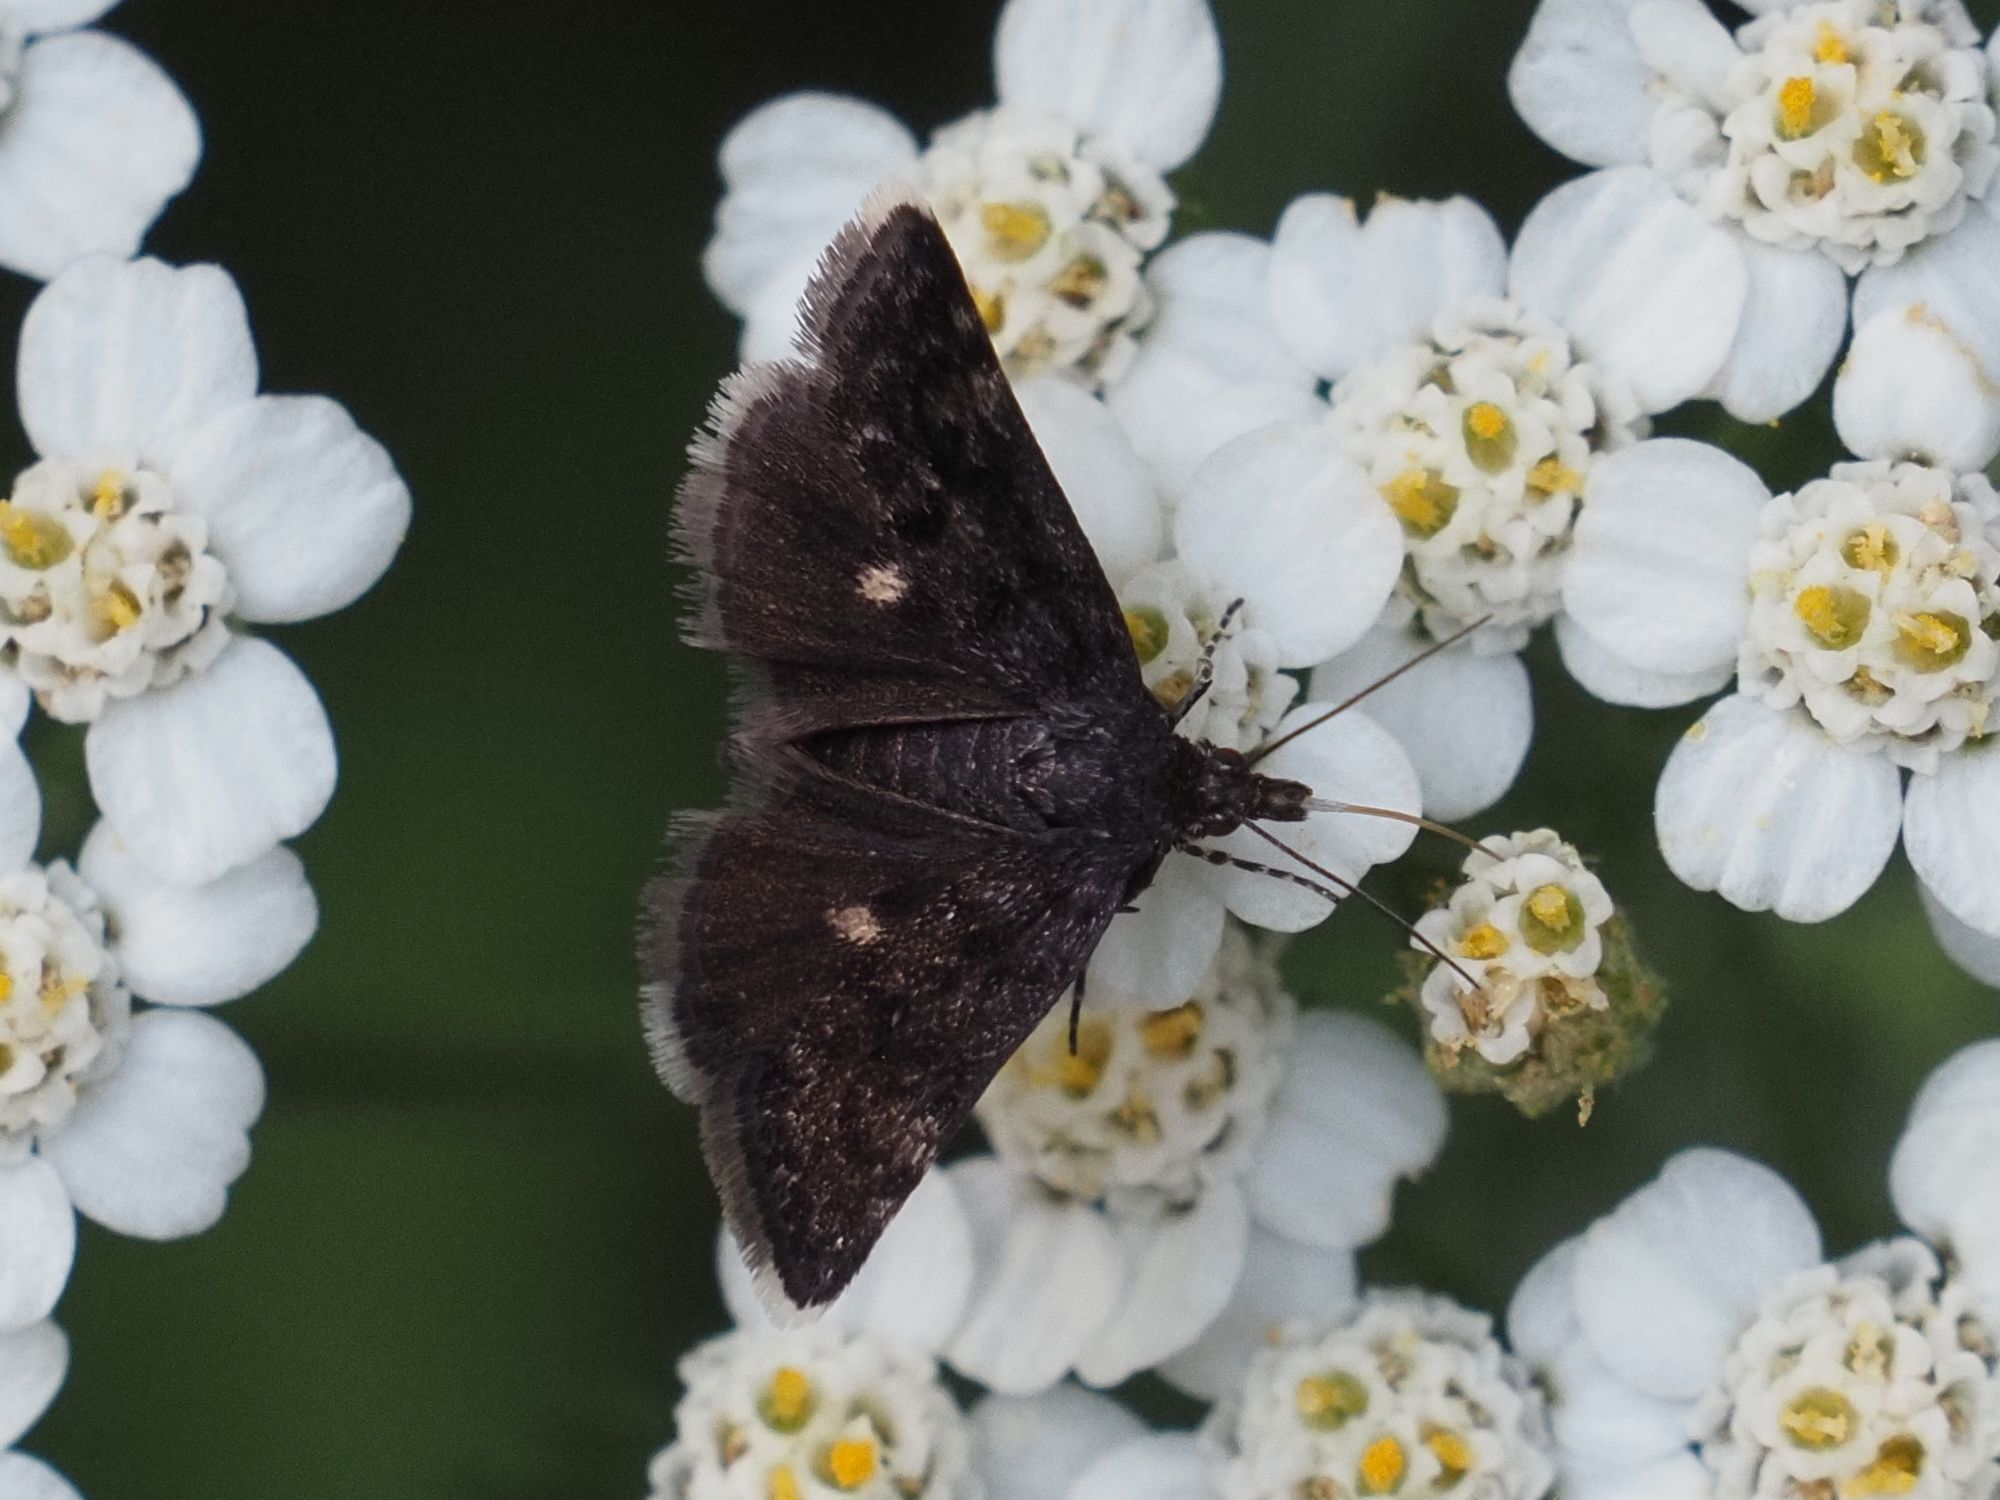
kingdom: Animalia
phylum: Arthropoda
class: Insecta
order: Lepidoptera
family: Crambidae
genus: Heliothela
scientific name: Heliothela wulfeniana
